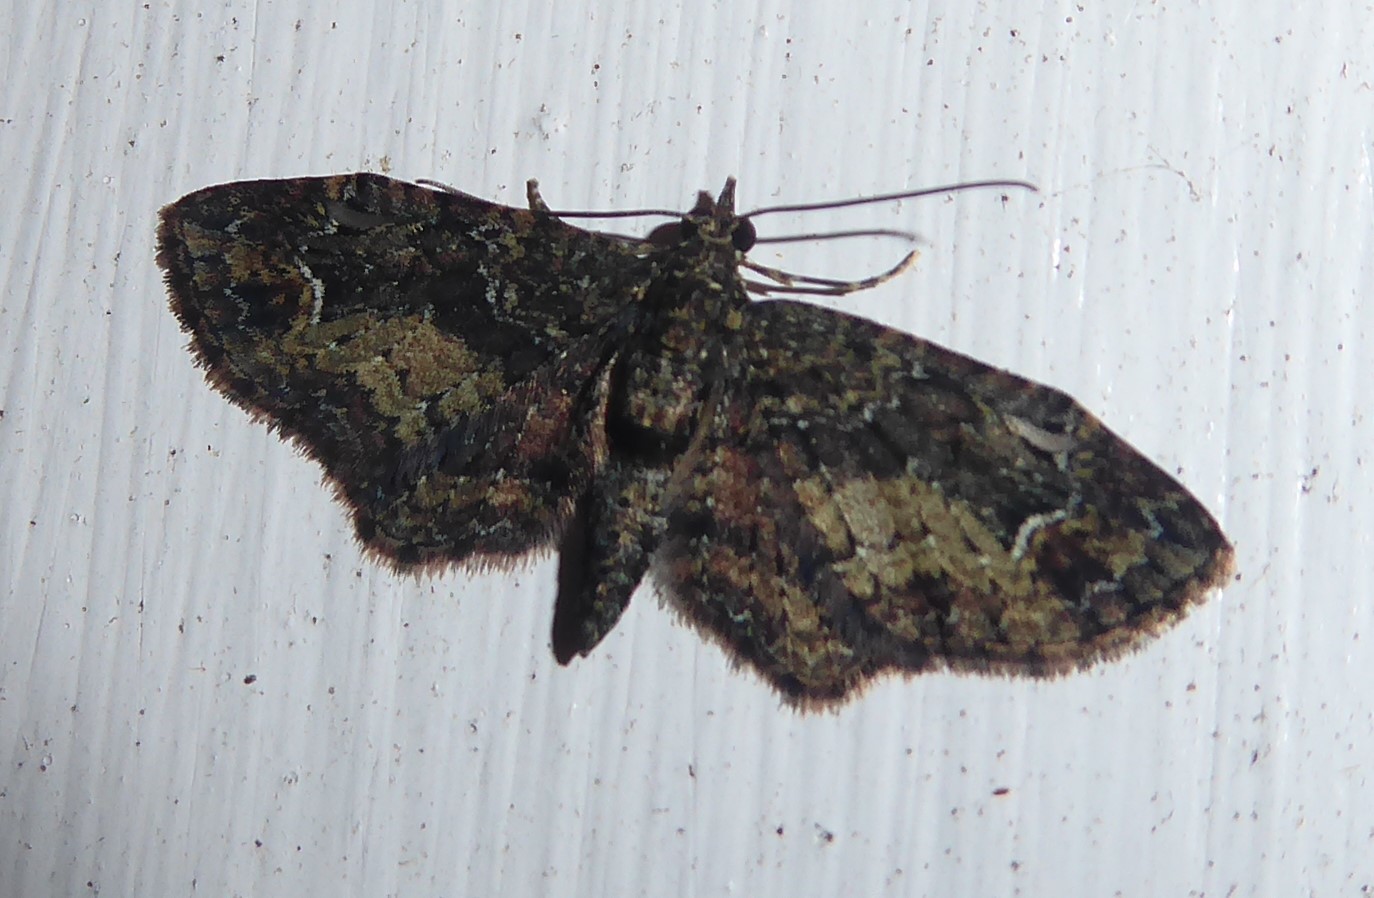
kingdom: Animalia
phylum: Arthropoda
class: Insecta
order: Lepidoptera
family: Geometridae
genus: Pasiphilodes
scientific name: Pasiphilodes testulata
